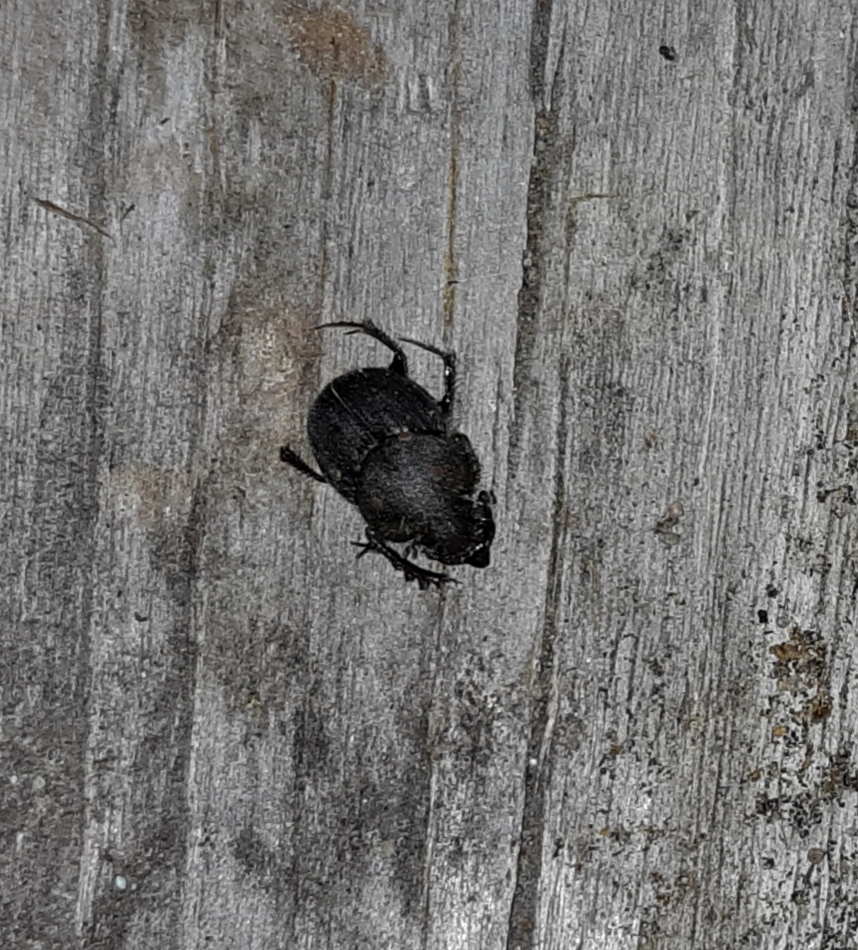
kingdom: Animalia
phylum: Arthropoda
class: Insecta
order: Coleoptera
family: Scarabaeidae
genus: Onthophagus
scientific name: Onthophagus hecate
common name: Scooped scarab
